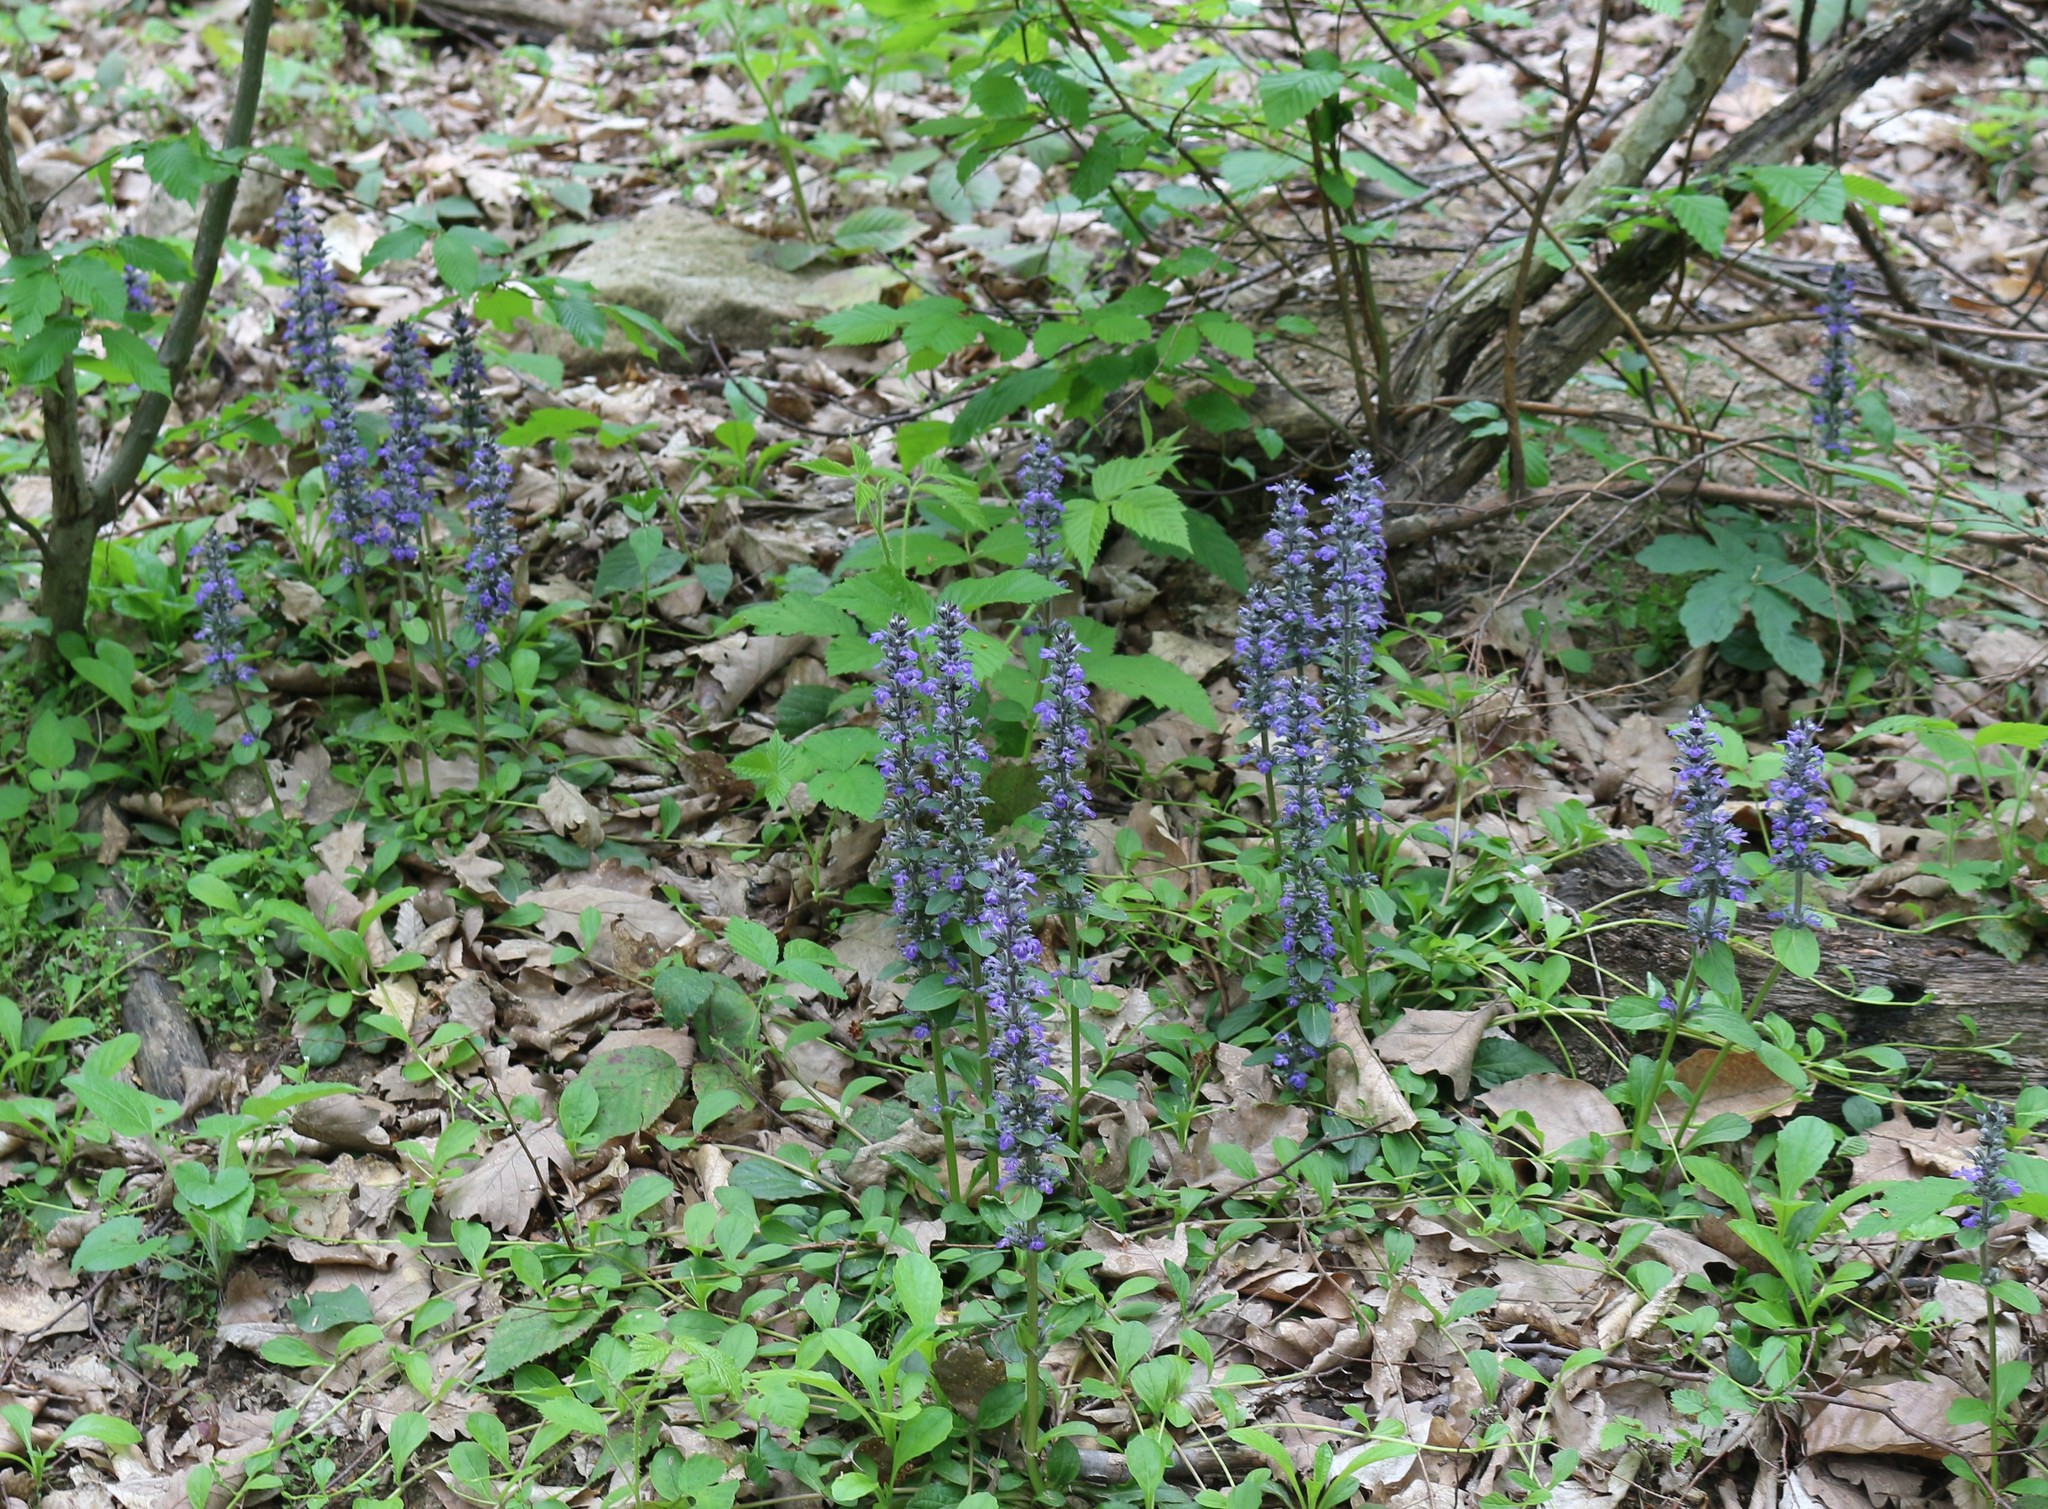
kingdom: Plantae
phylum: Tracheophyta
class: Magnoliopsida
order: Lamiales
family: Lamiaceae
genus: Ajuga
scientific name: Ajuga reptans
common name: Bugle
